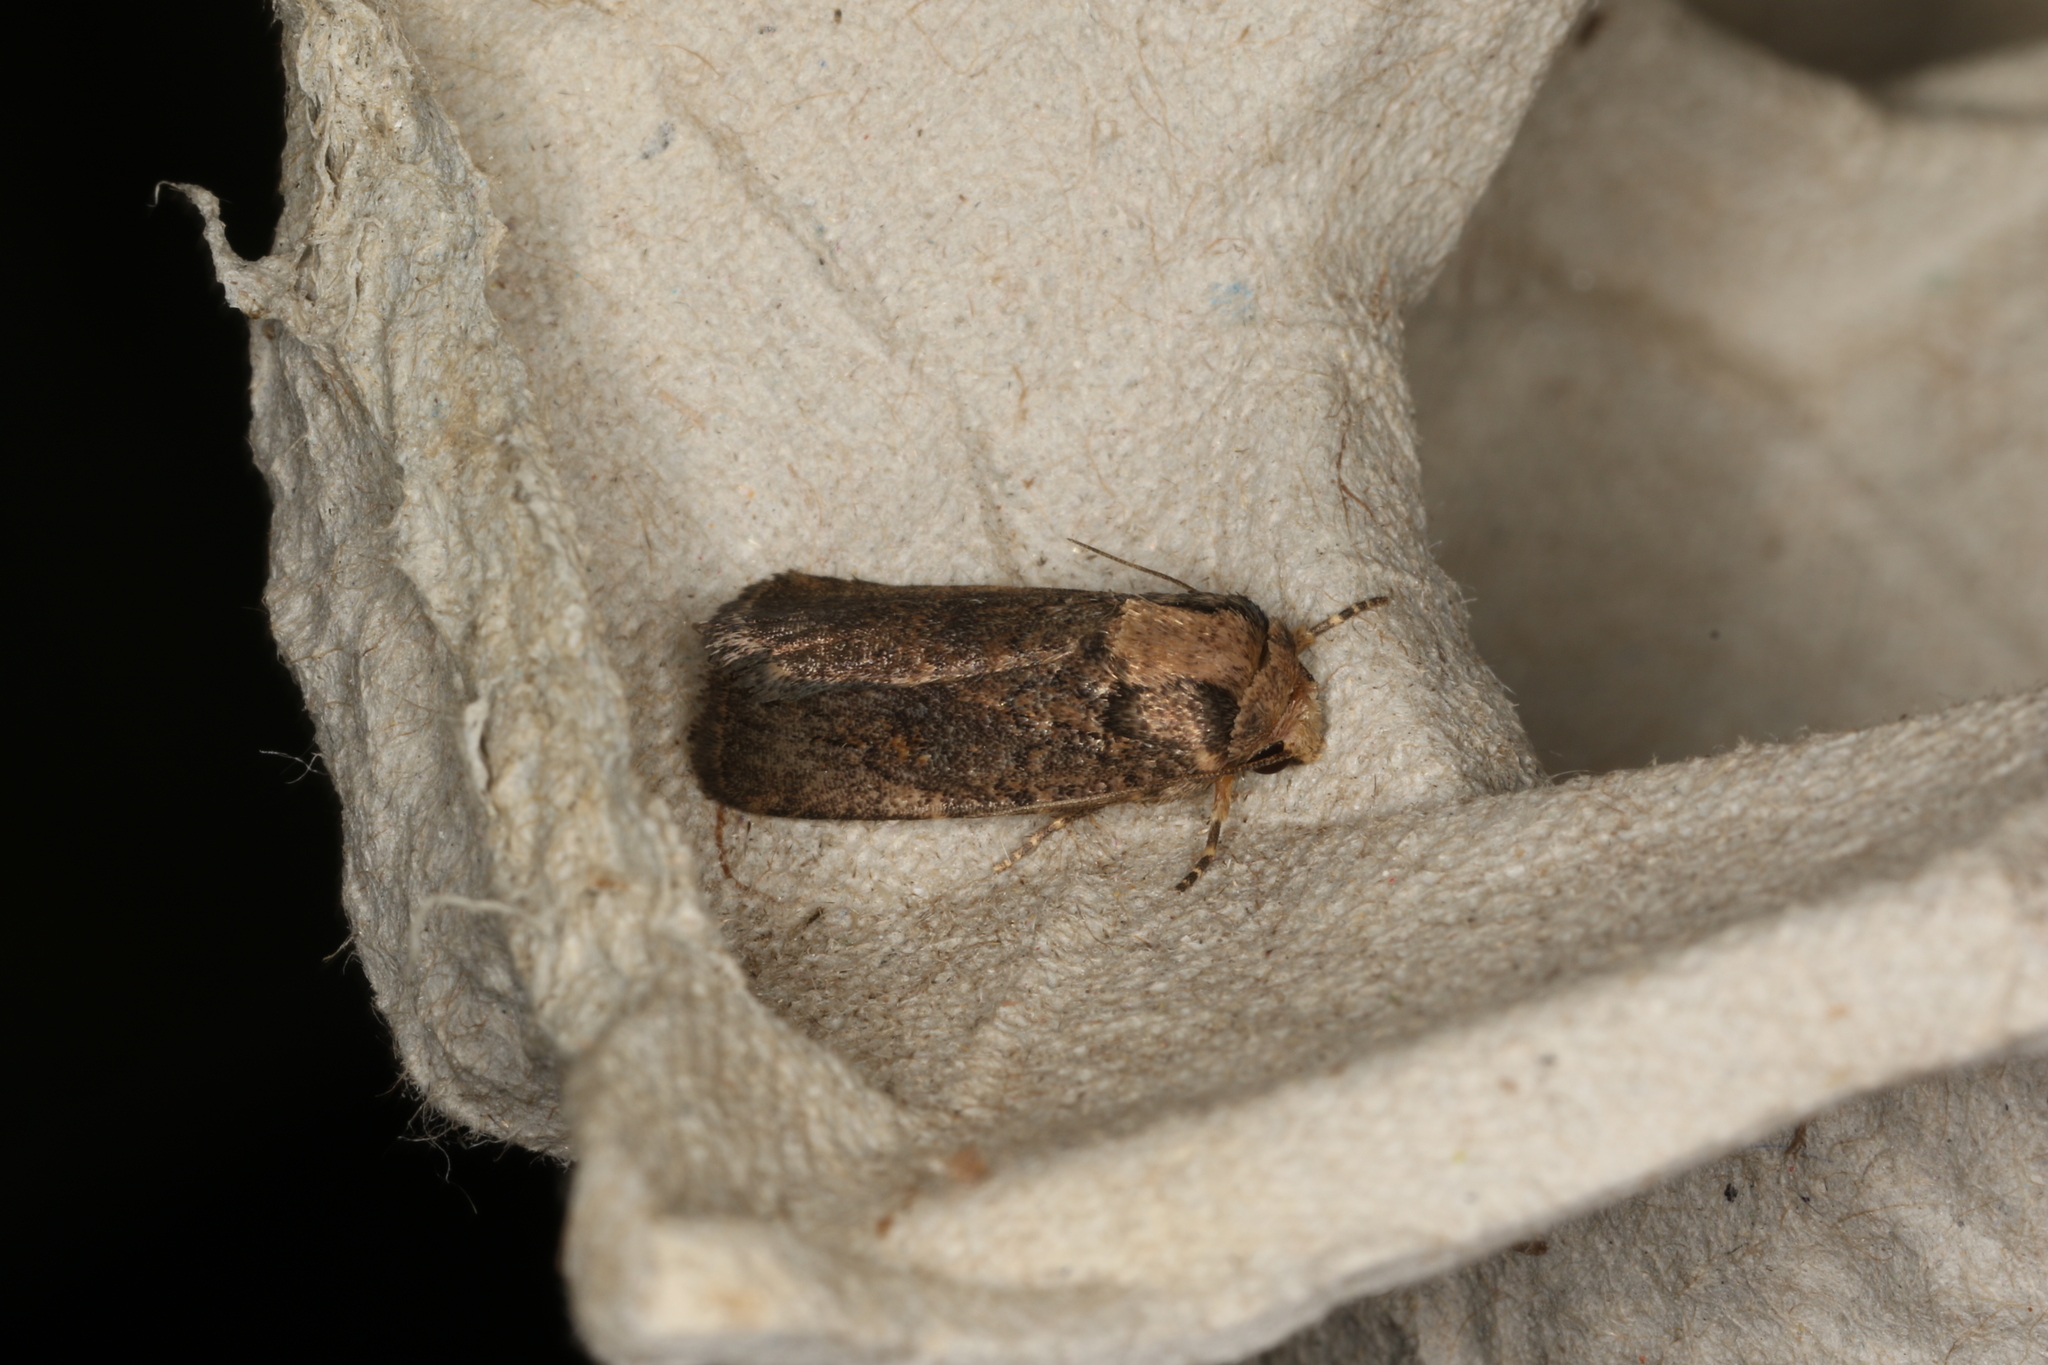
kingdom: Animalia
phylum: Arthropoda
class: Insecta
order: Lepidoptera
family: Noctuidae
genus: Proteuxoa
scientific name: Proteuxoa nyctereutica
